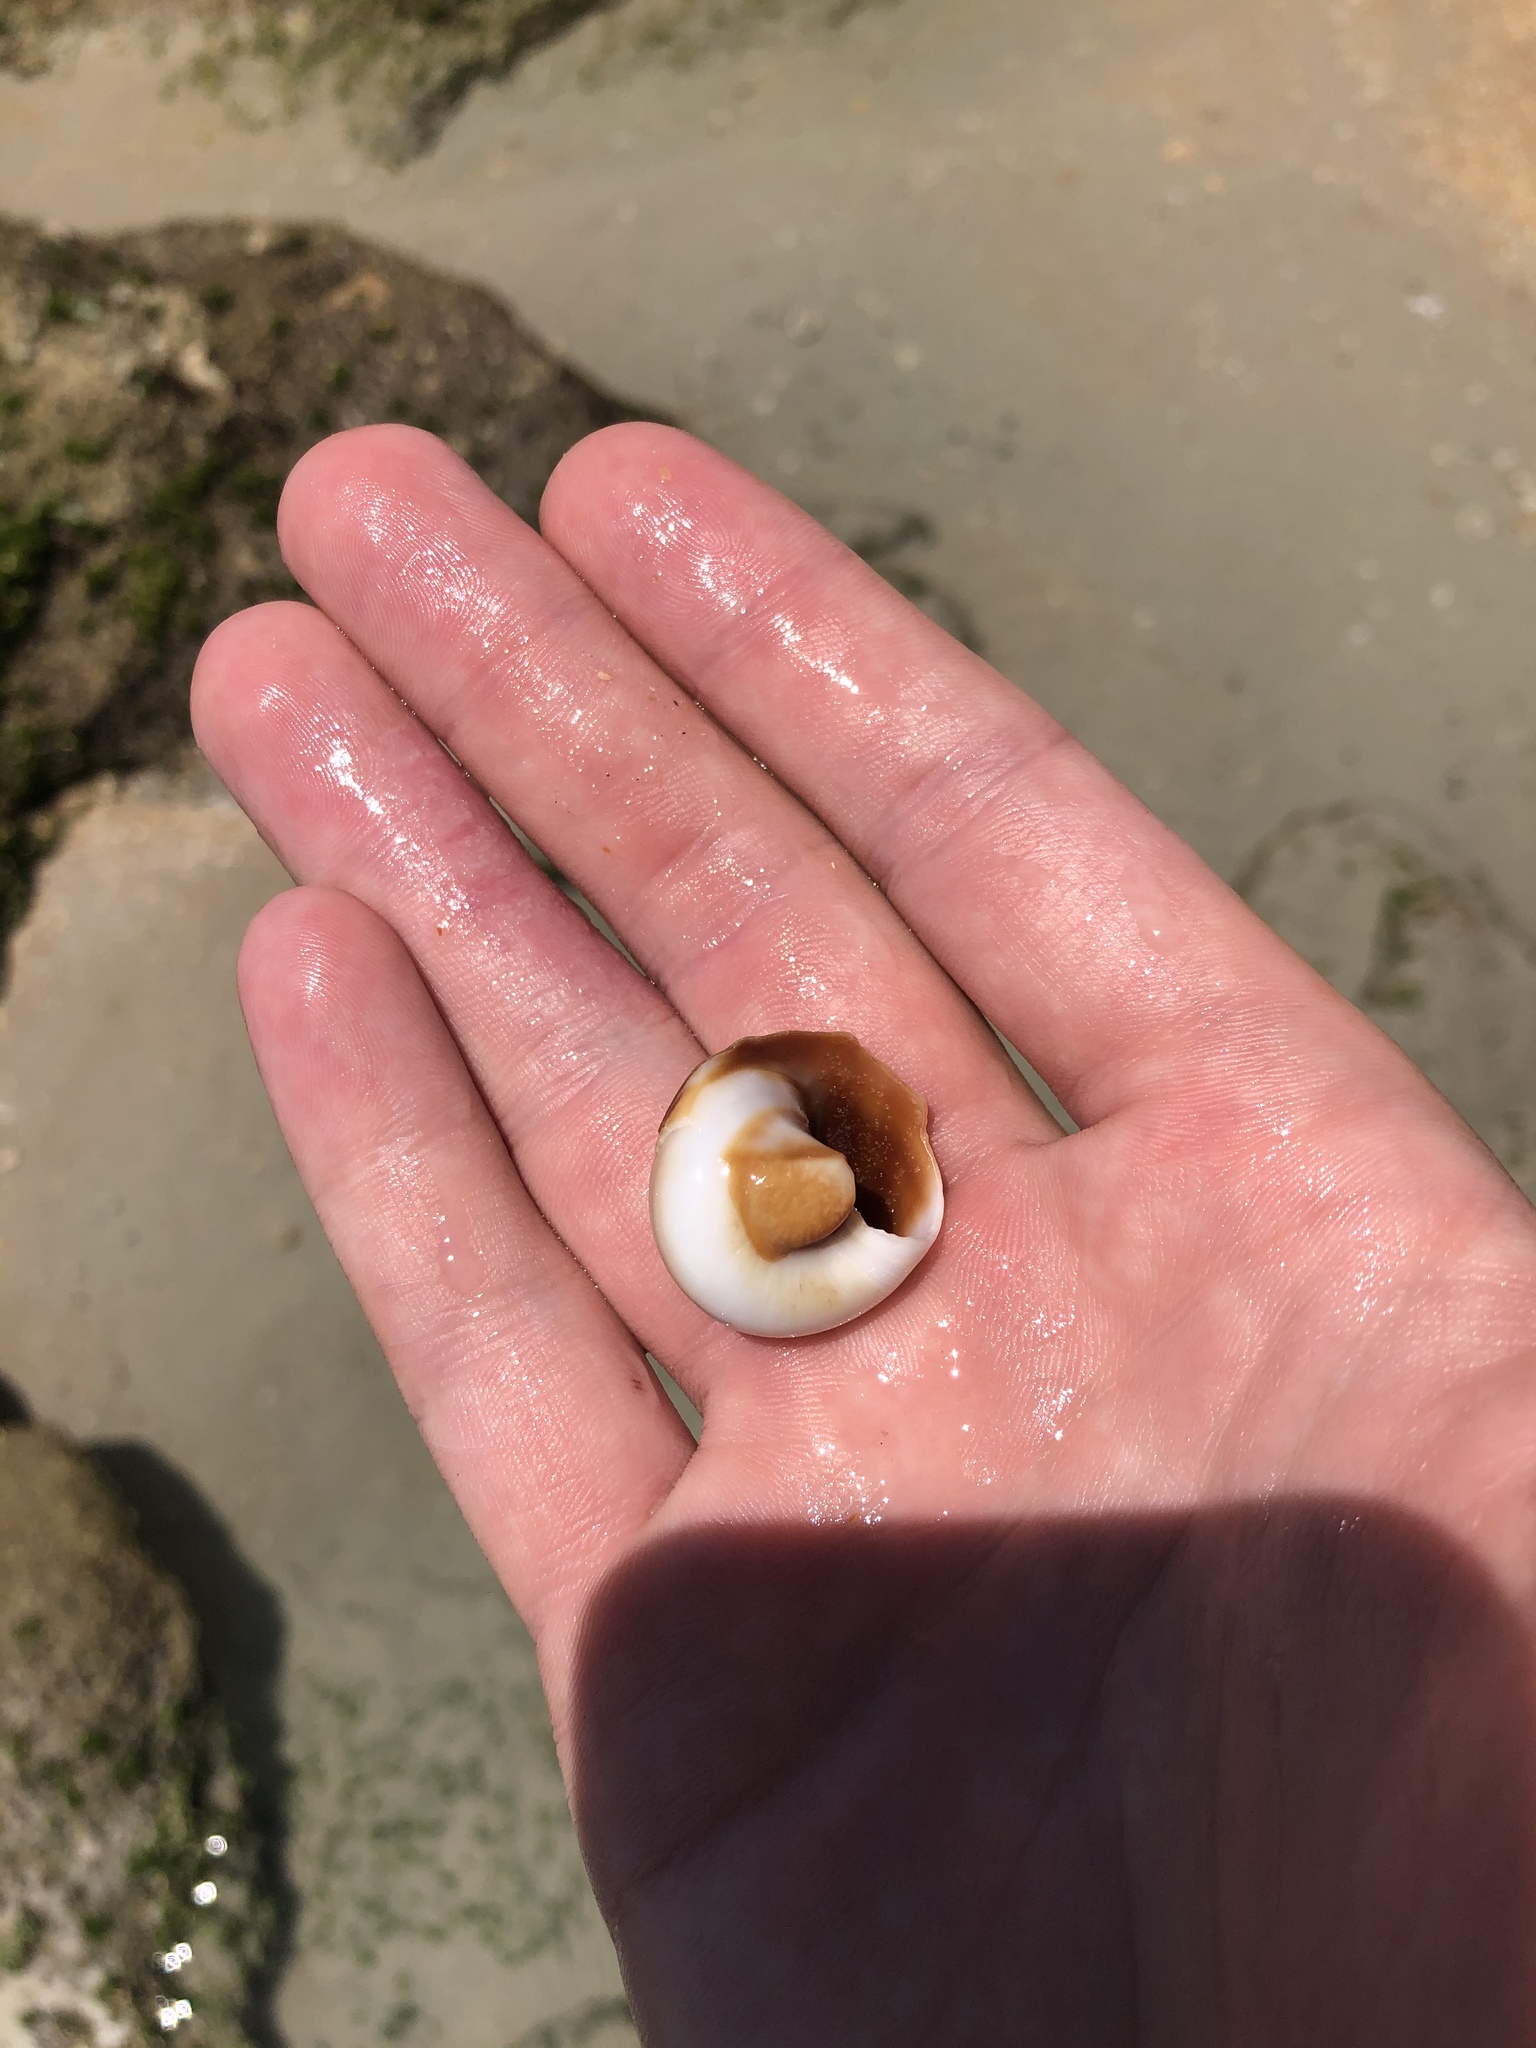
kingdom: Animalia
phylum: Mollusca
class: Gastropoda
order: Littorinimorpha
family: Naticidae
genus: Neverita
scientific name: Neverita duplicata
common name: Lobed moonsnail
